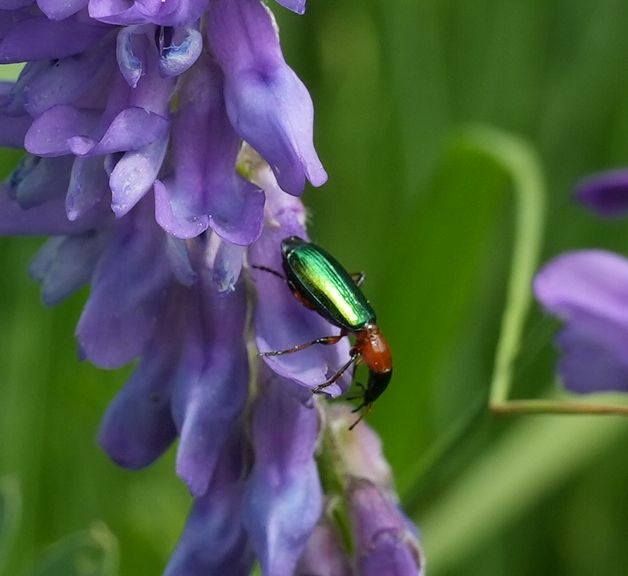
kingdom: Animalia
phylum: Arthropoda
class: Insecta
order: Coleoptera
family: Carabidae
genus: Calleida
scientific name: Calleida punctata
